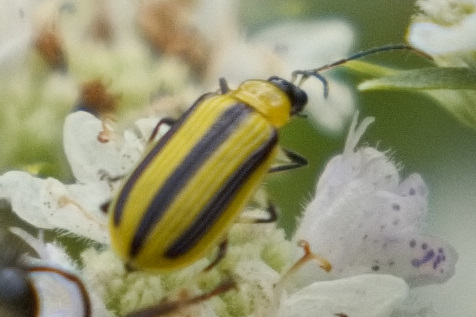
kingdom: Animalia
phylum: Arthropoda
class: Insecta
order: Coleoptera
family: Chrysomelidae
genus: Acalymma
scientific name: Acalymma vittatum
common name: Striped cucumber beetle
